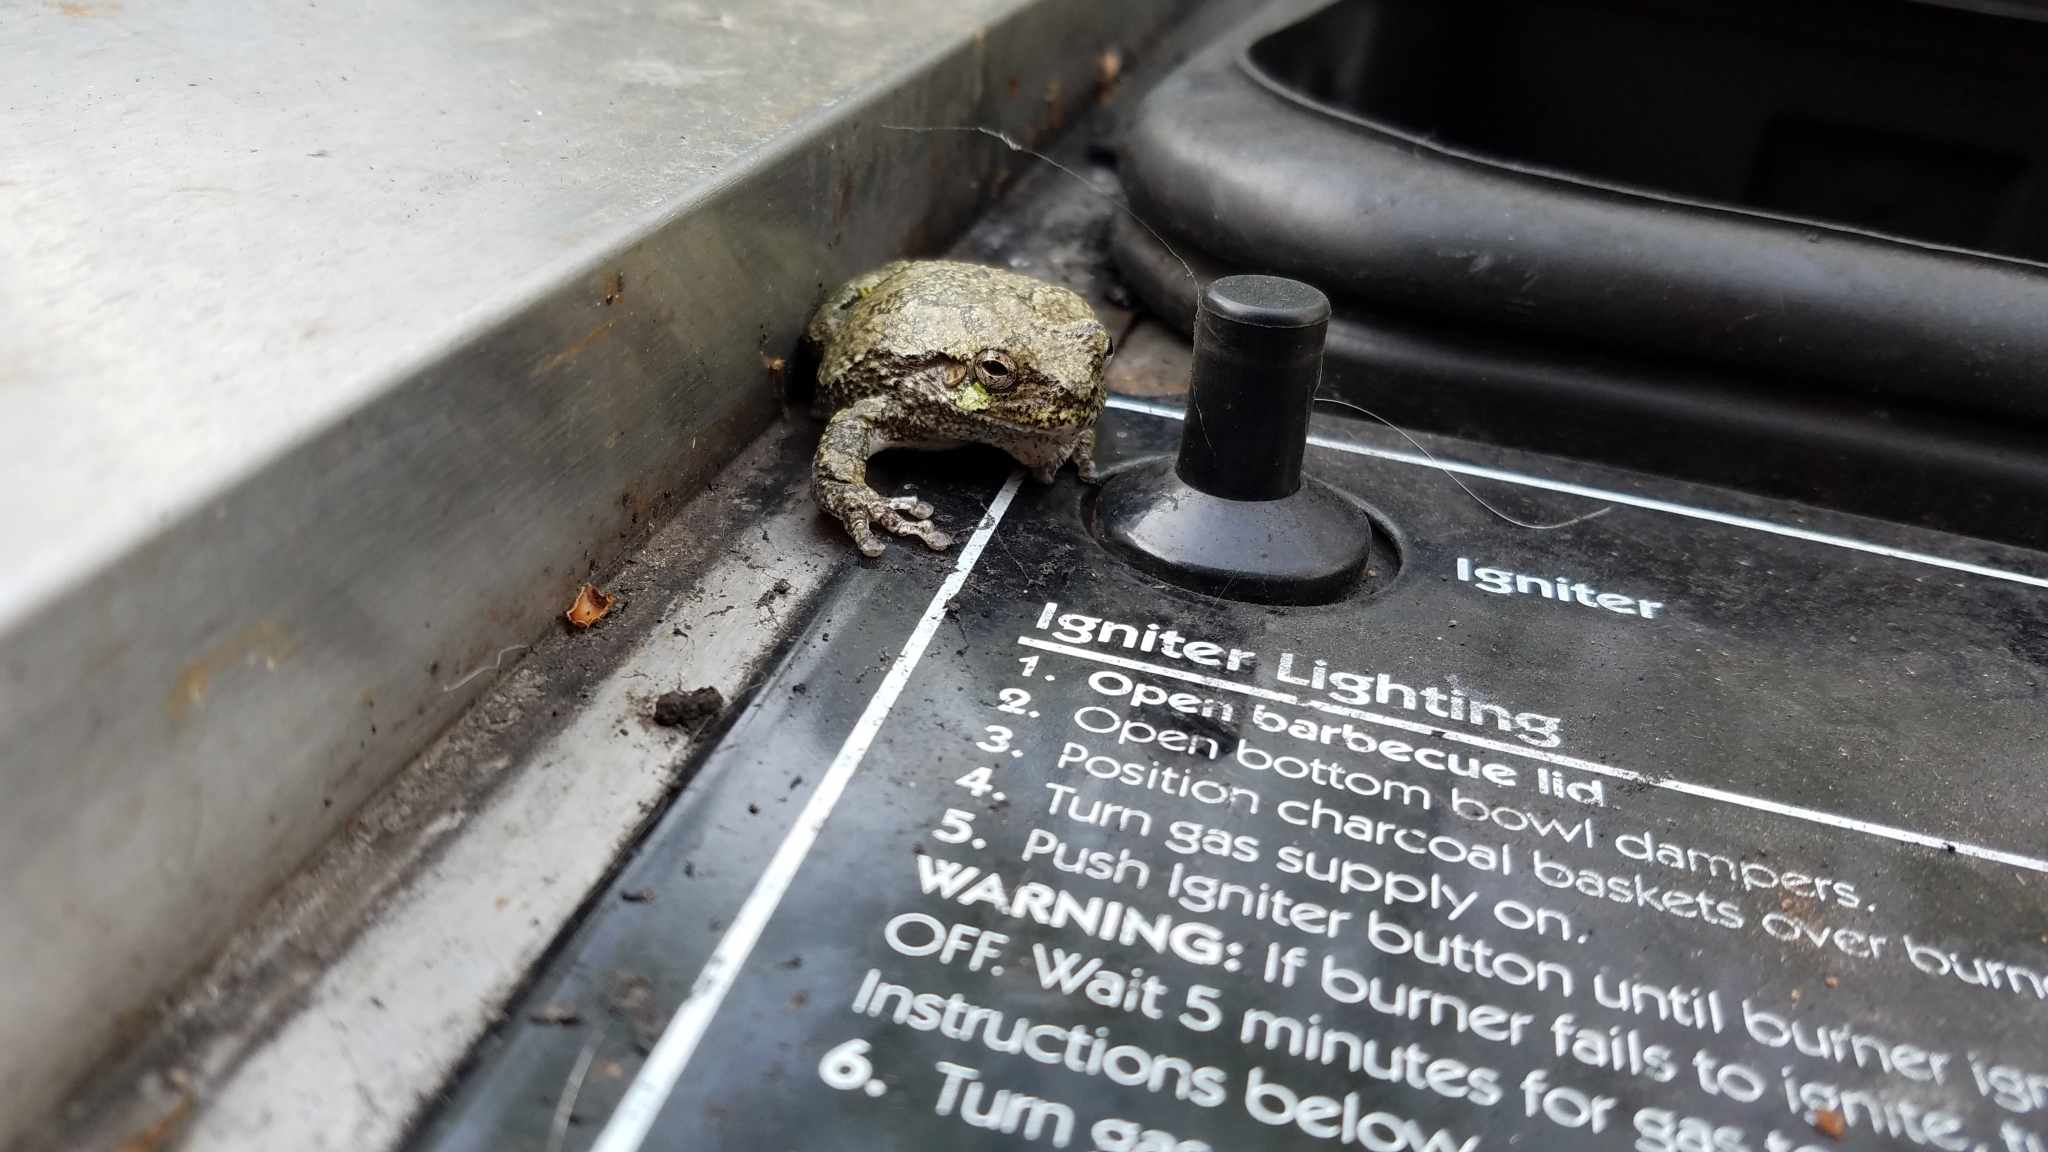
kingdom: Animalia
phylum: Chordata
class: Amphibia
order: Anura
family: Hylidae
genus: Hyla
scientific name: Hyla
